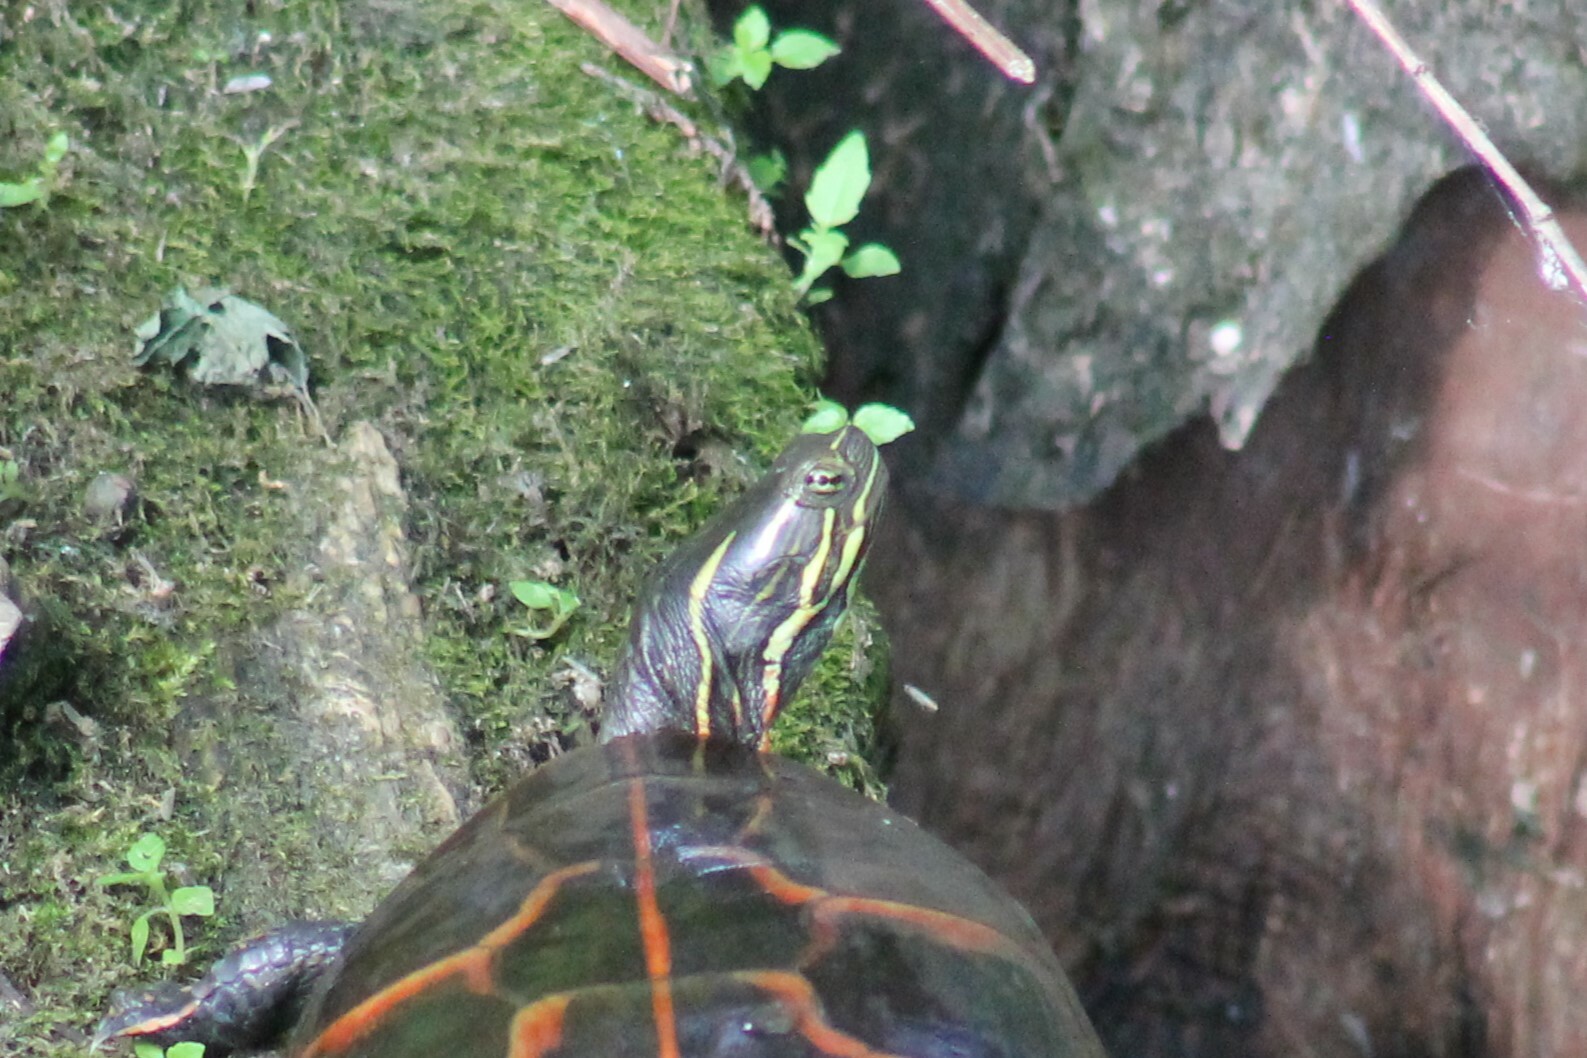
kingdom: Animalia
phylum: Chordata
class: Testudines
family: Emydidae
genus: Chrysemys
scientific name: Chrysemys dorsalis
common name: Southern painted turtle
